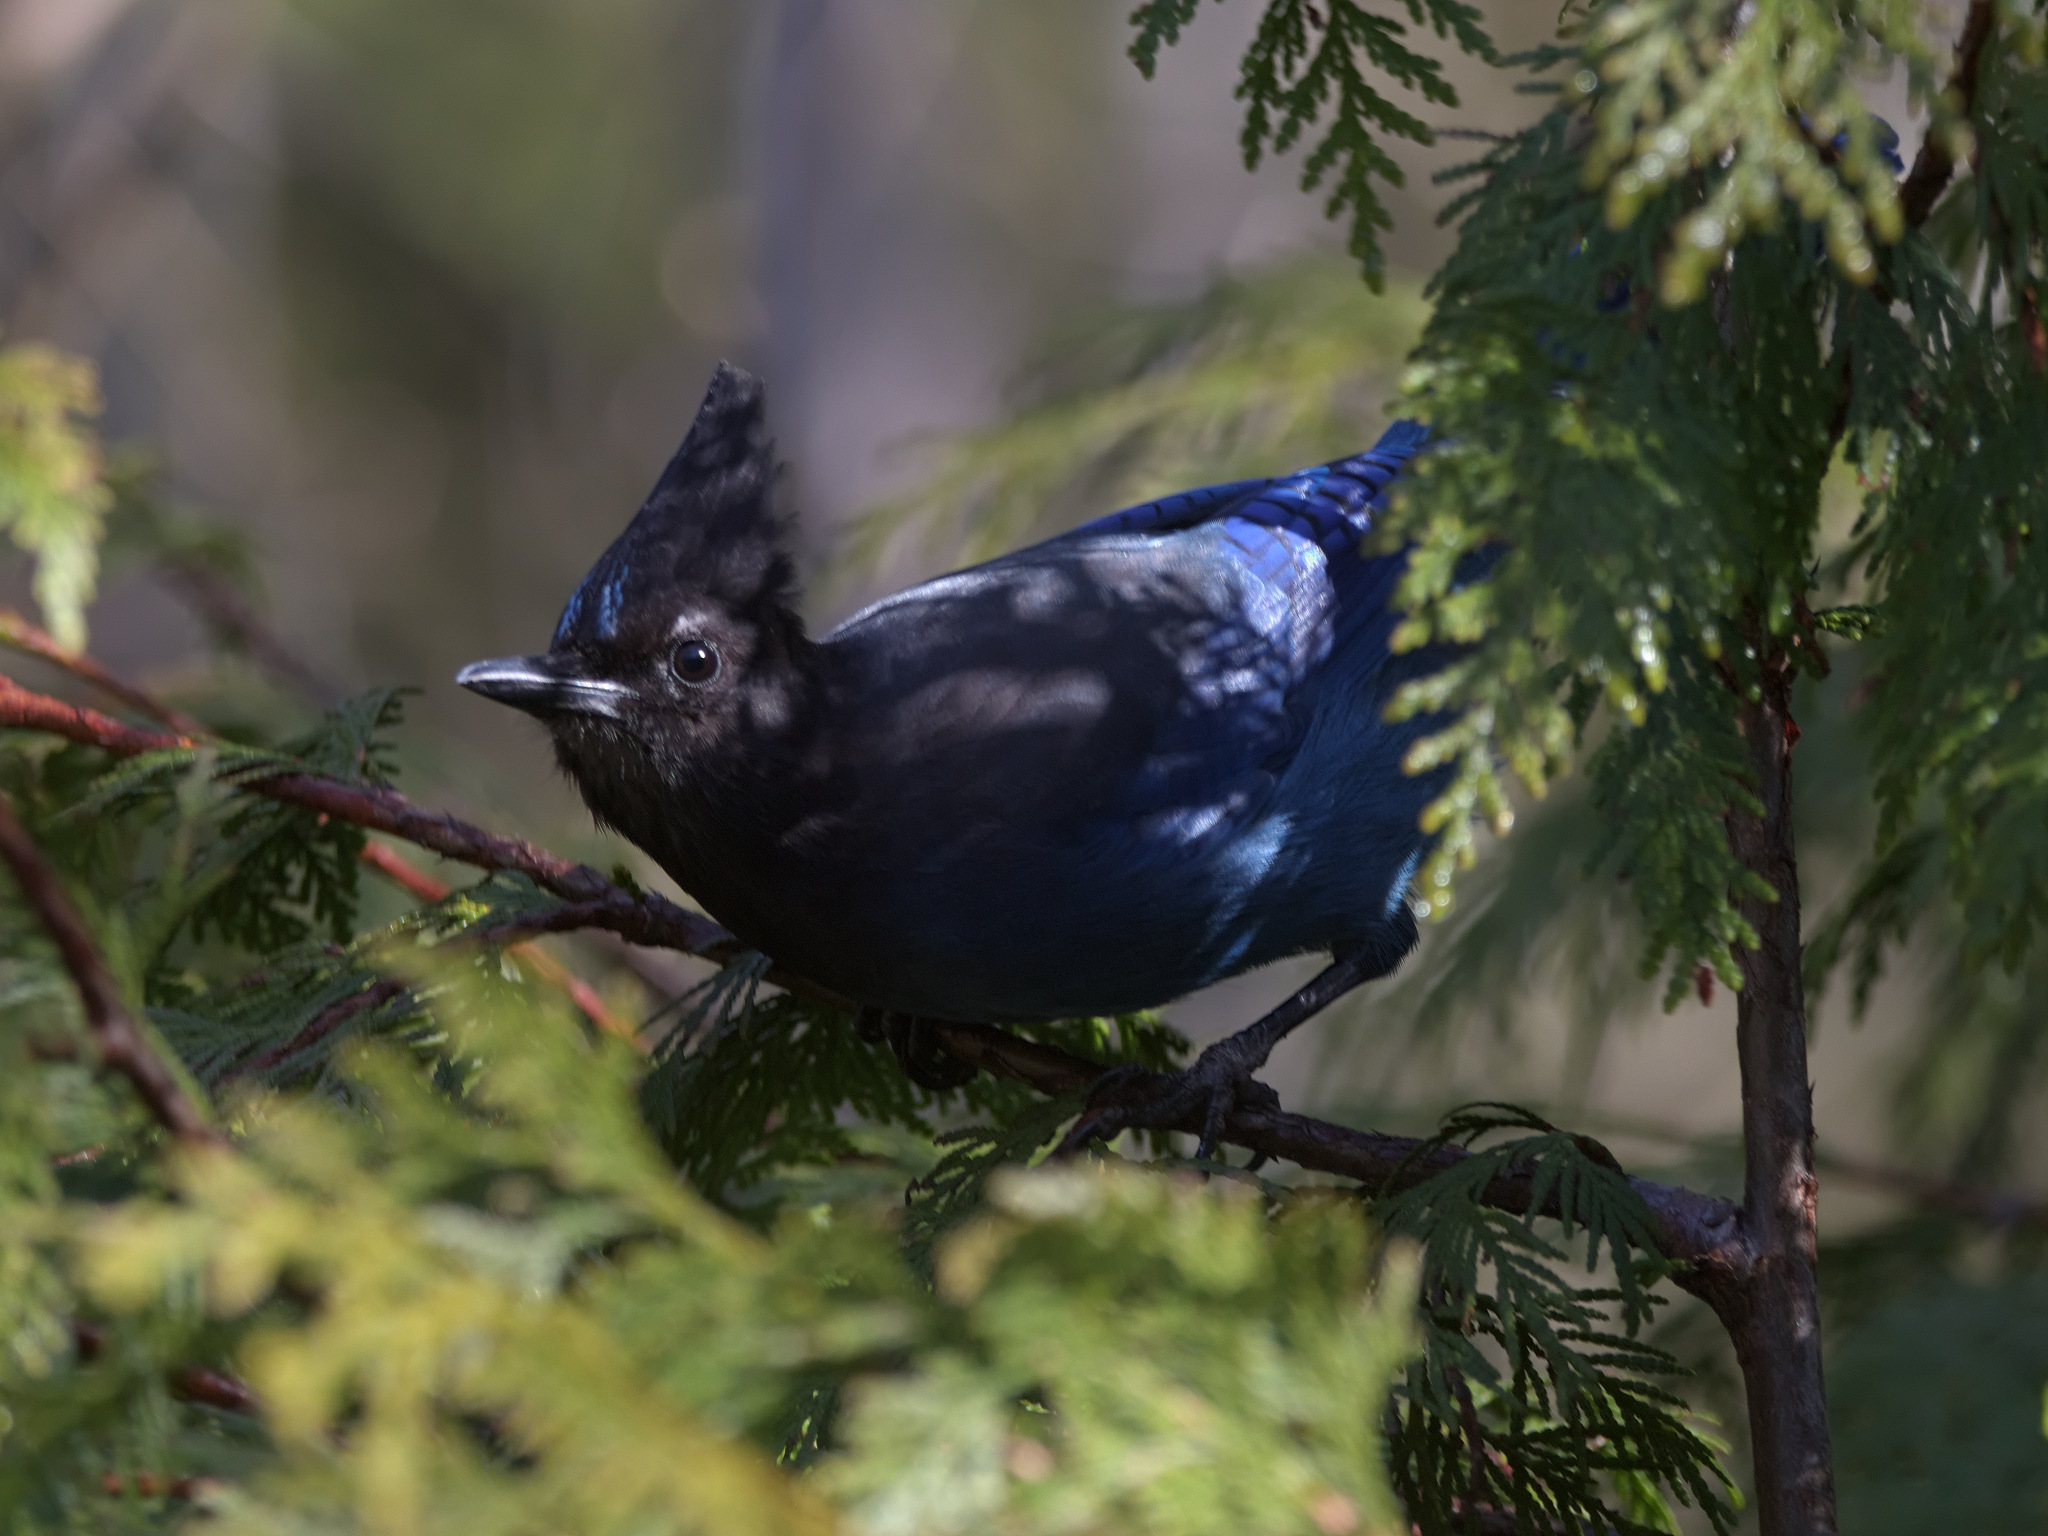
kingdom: Animalia
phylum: Chordata
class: Aves
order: Passeriformes
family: Corvidae
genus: Cyanocitta
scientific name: Cyanocitta stelleri
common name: Steller's jay
